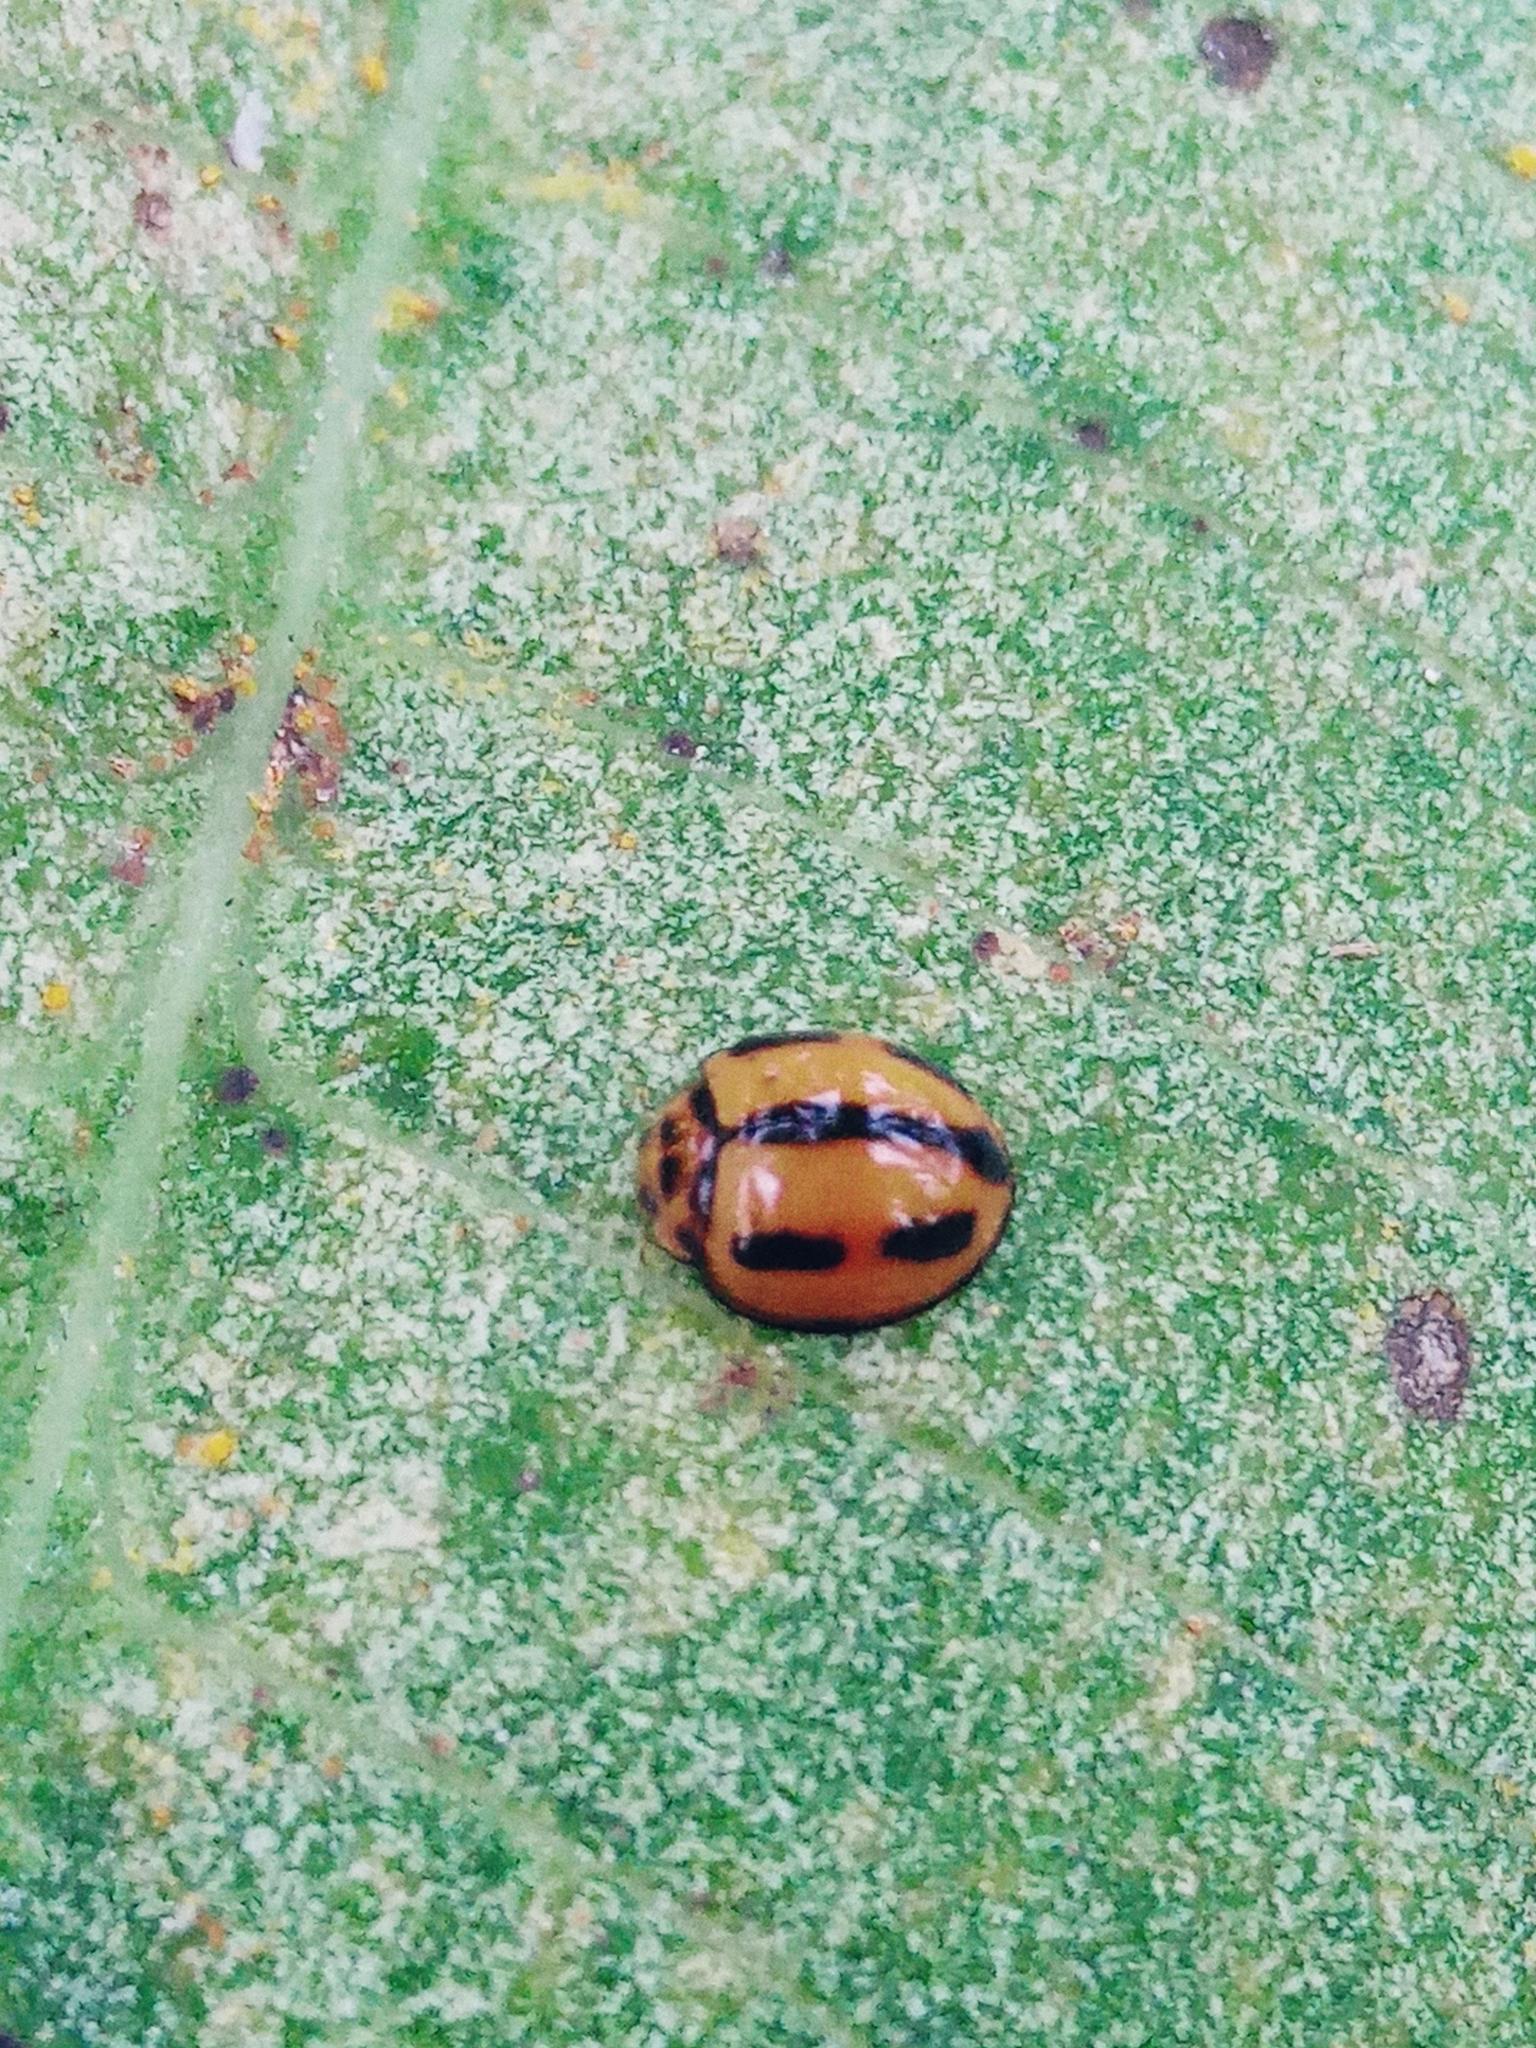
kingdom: Animalia
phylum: Arthropoda
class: Insecta
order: Coleoptera
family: Coccinellidae
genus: Coelophora
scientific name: Coelophora inaequalis
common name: Common australian lady beetle
